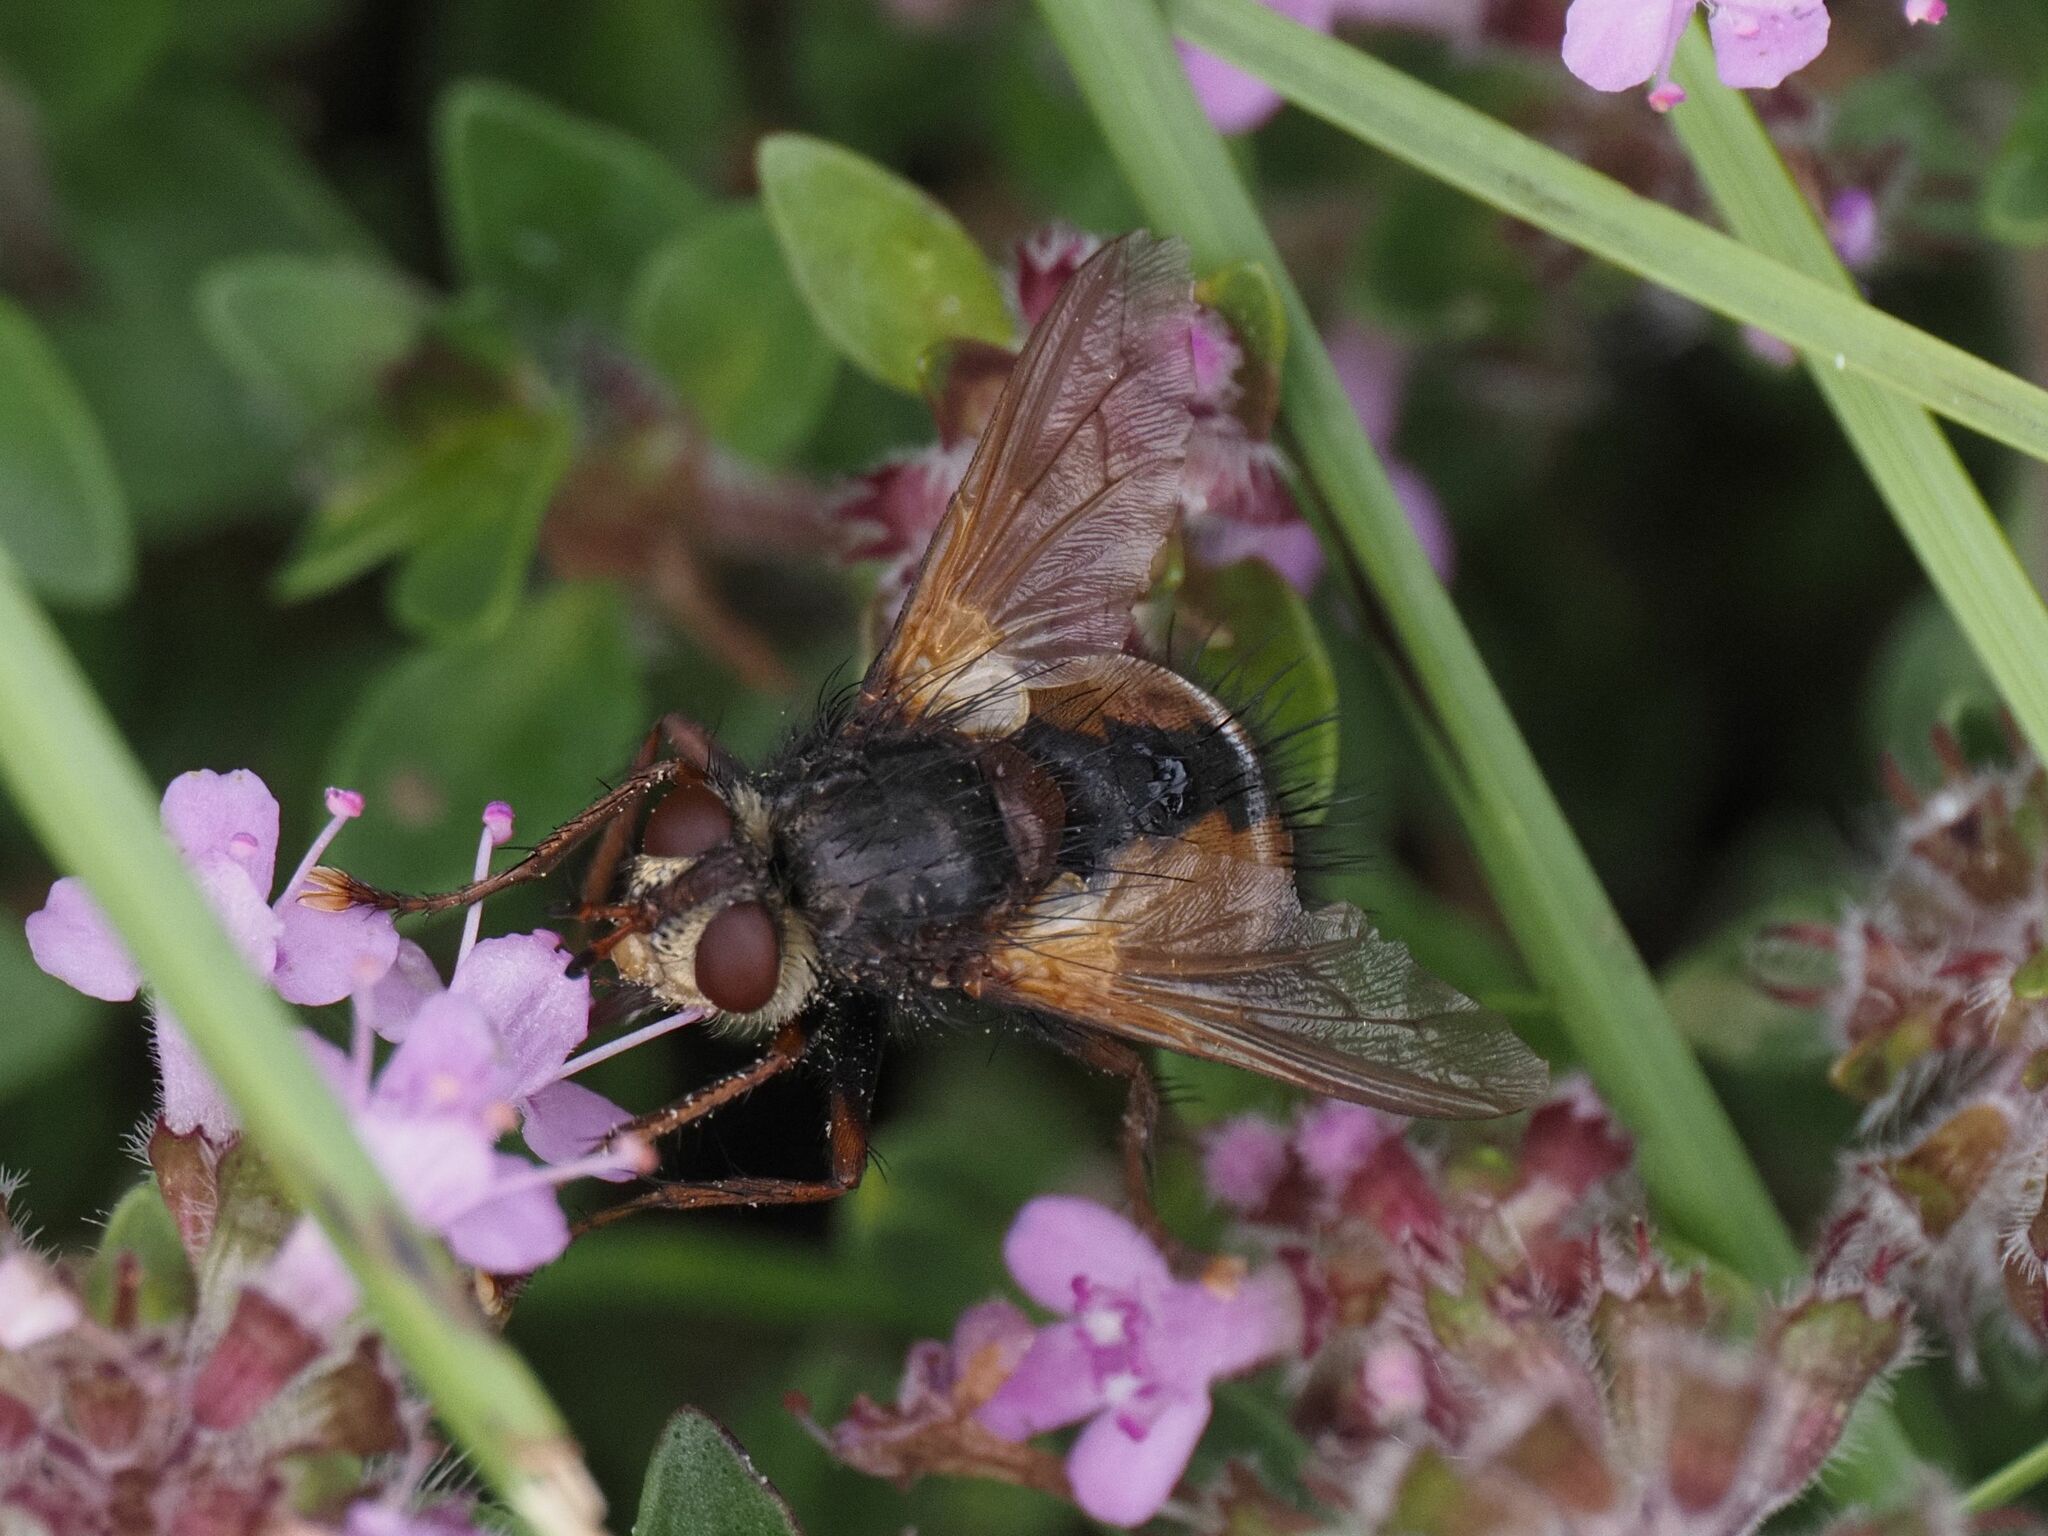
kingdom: Animalia
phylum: Arthropoda
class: Insecta
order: Diptera
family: Tachinidae
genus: Tachina
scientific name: Tachina fera
